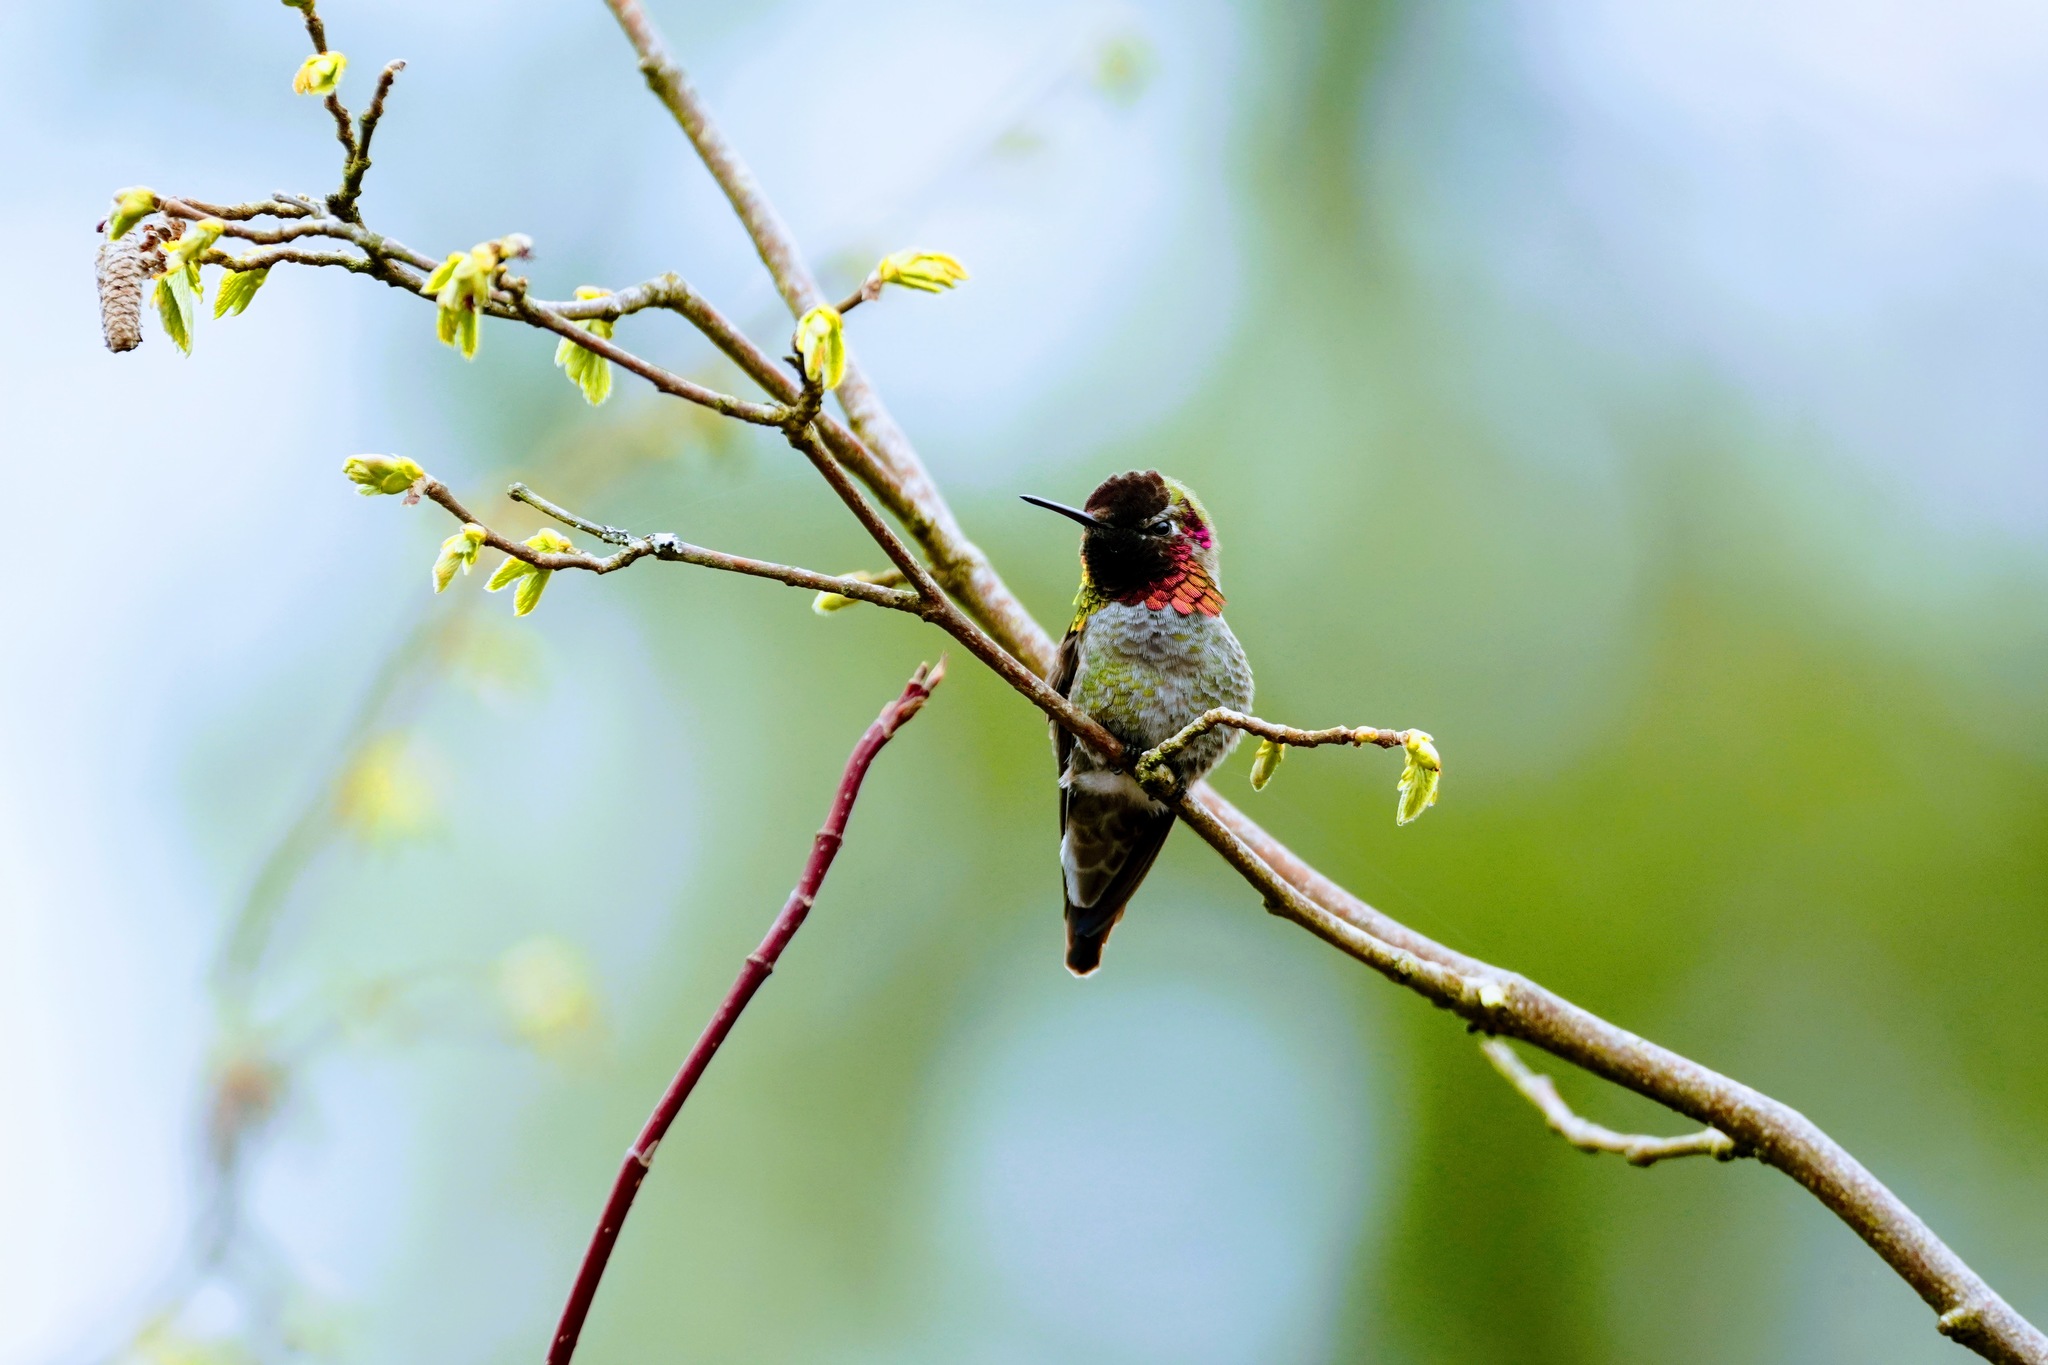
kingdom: Animalia
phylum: Chordata
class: Aves
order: Apodiformes
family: Trochilidae
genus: Calypte
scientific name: Calypte anna
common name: Anna's hummingbird
